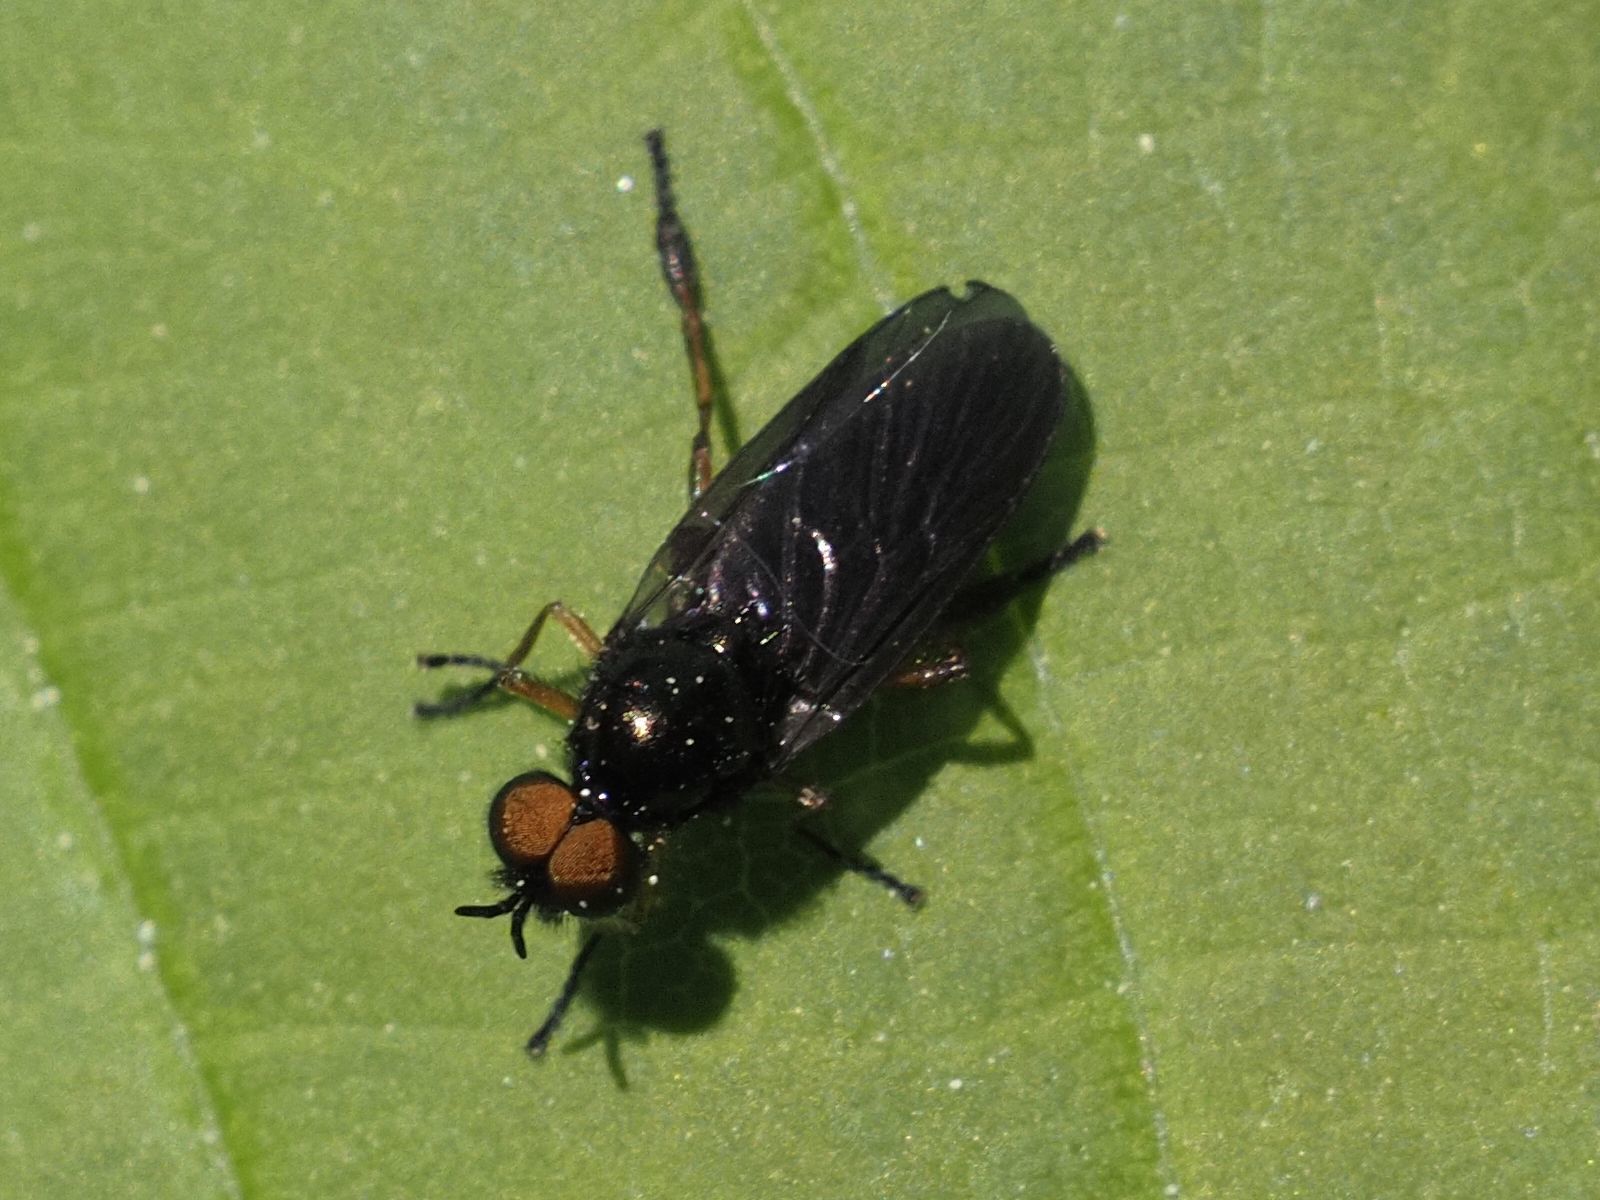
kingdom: Animalia
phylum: Arthropoda
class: Insecta
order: Diptera
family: Stratiomyidae
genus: Beris
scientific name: Beris chalybata
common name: Murky-legged black legionnaire
